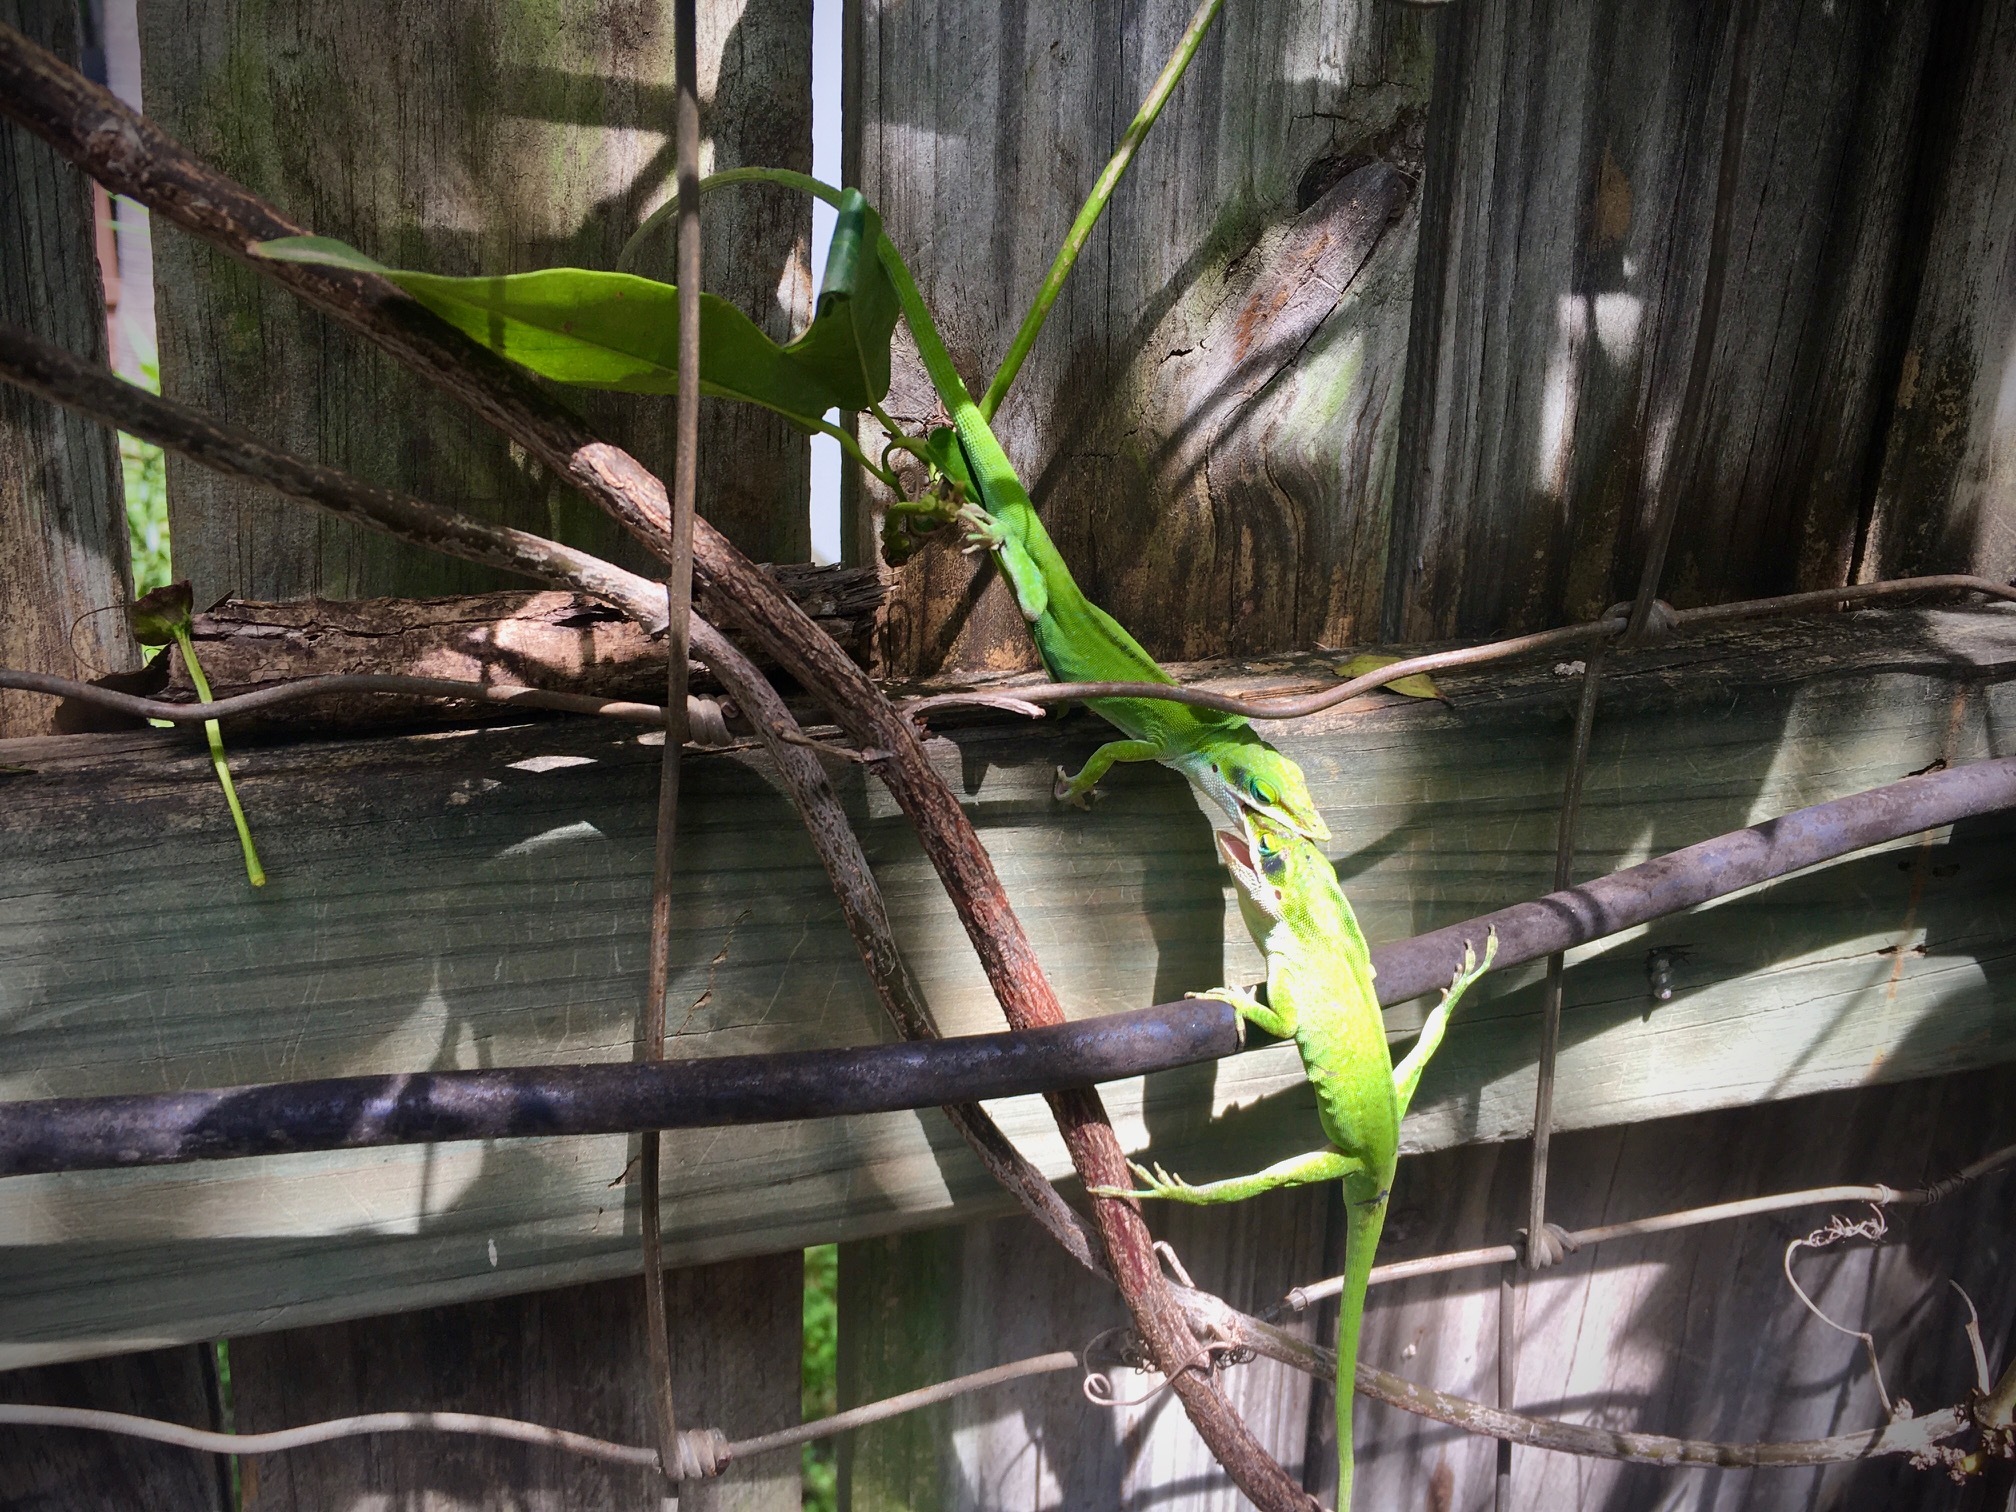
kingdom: Animalia
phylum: Chordata
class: Squamata
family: Dactyloidae
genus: Anolis
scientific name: Anolis carolinensis
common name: Green anole
